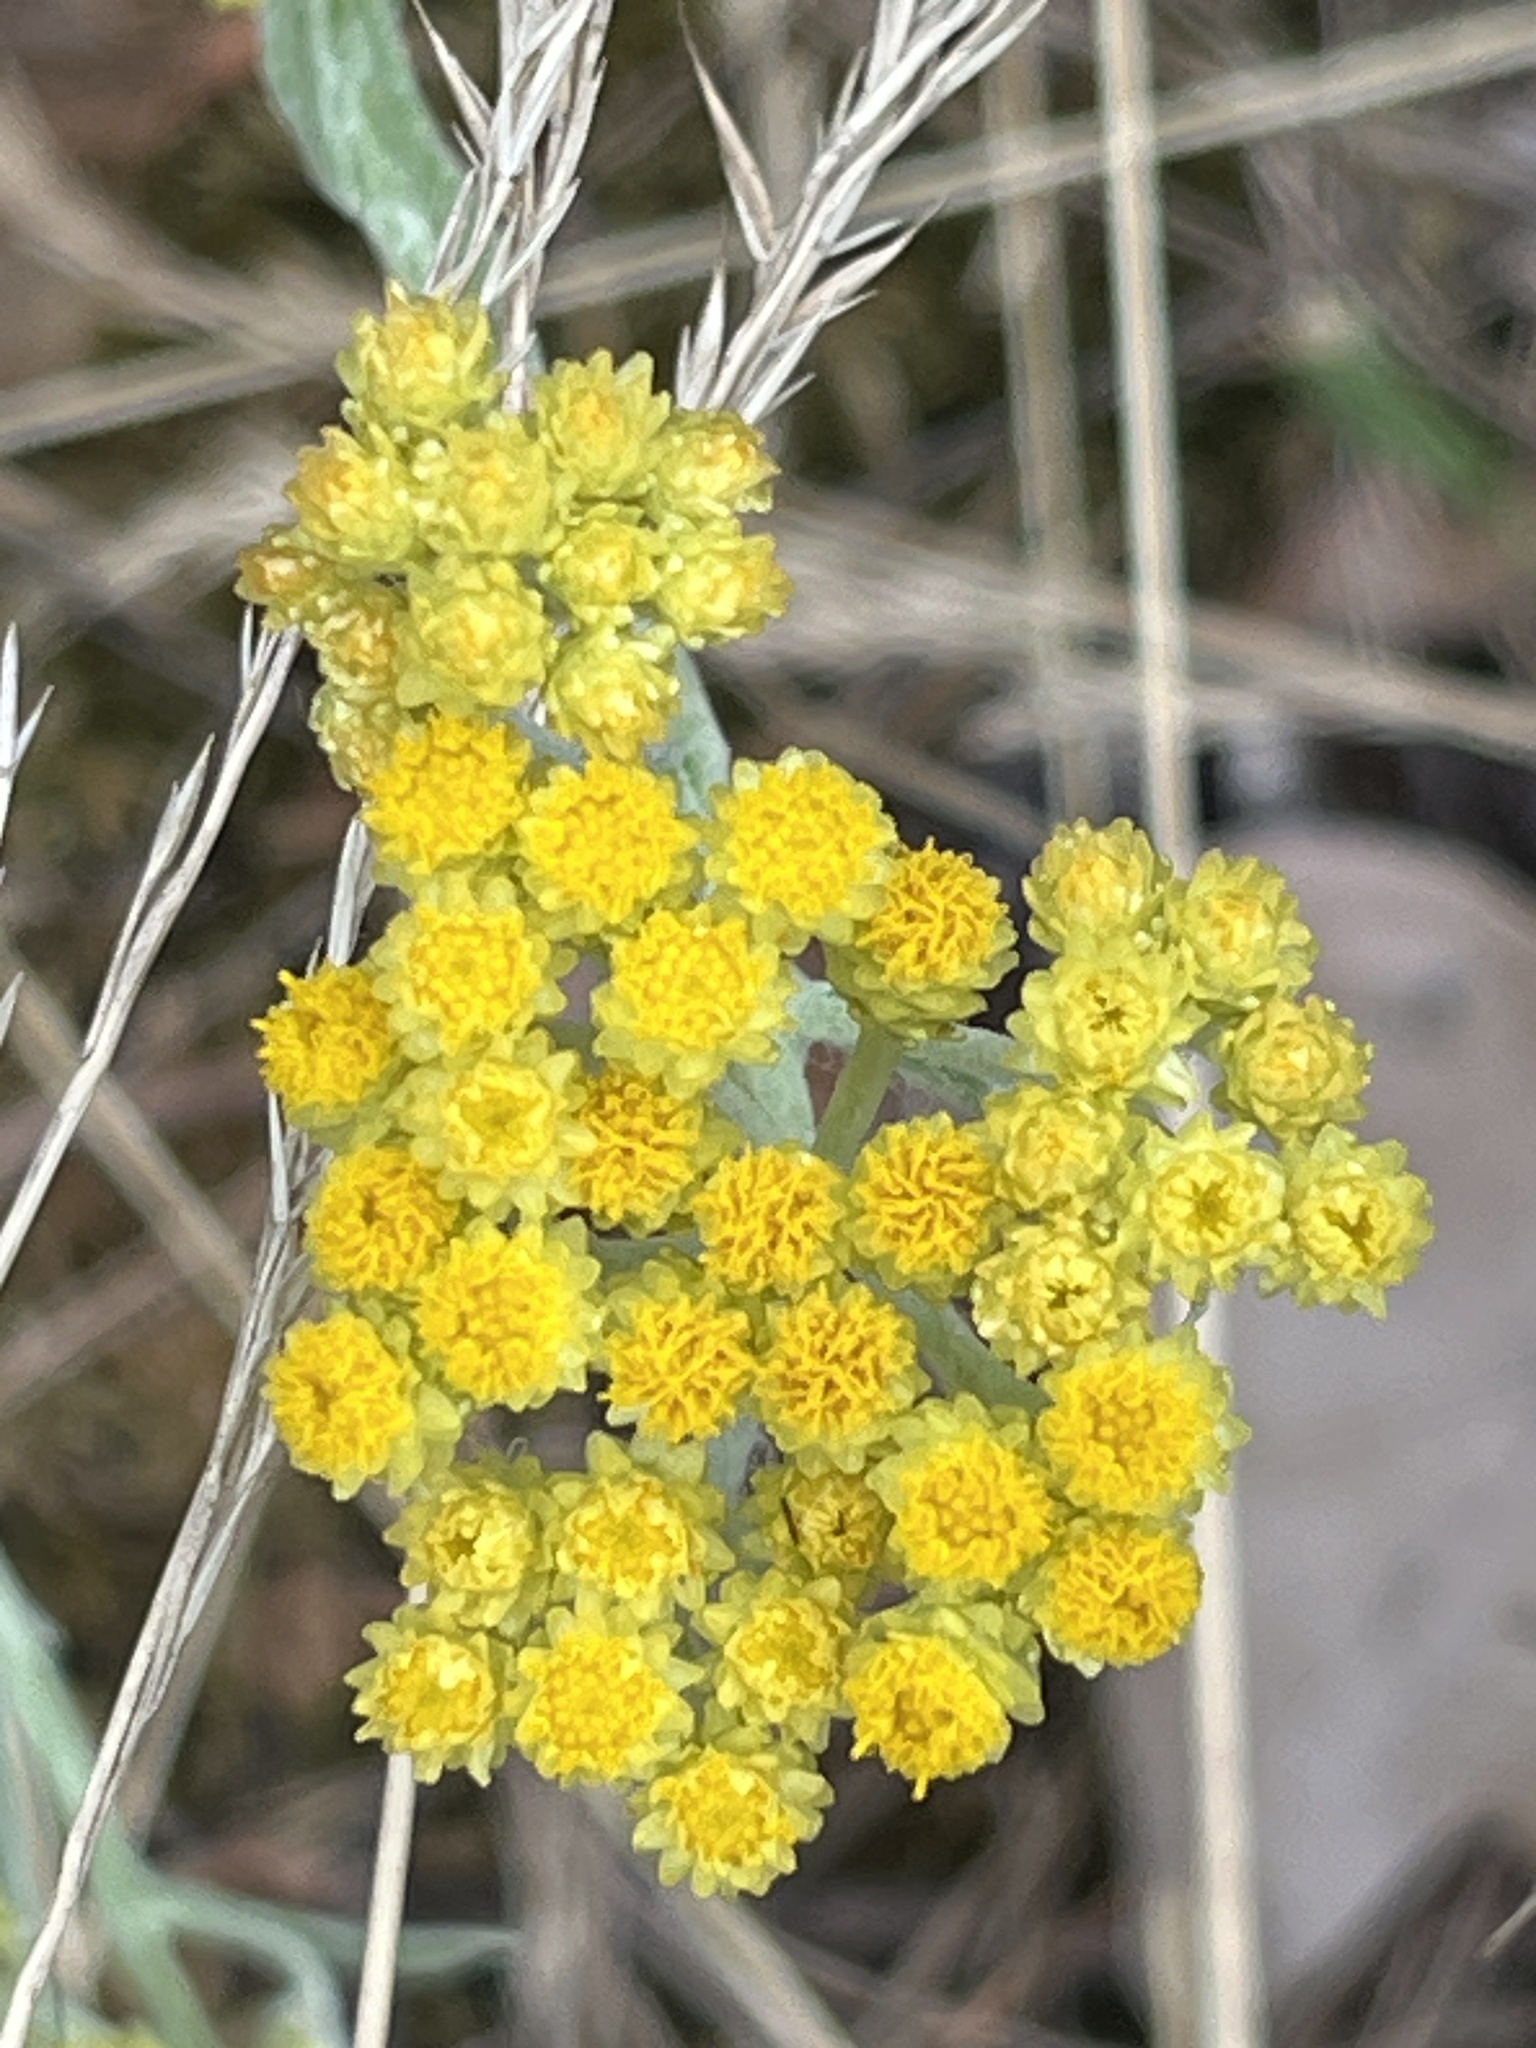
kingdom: Plantae
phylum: Tracheophyta
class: Magnoliopsida
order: Asterales
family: Asteraceae
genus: Helichrysum
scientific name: Helichrysum arenarium
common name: Strawflower
